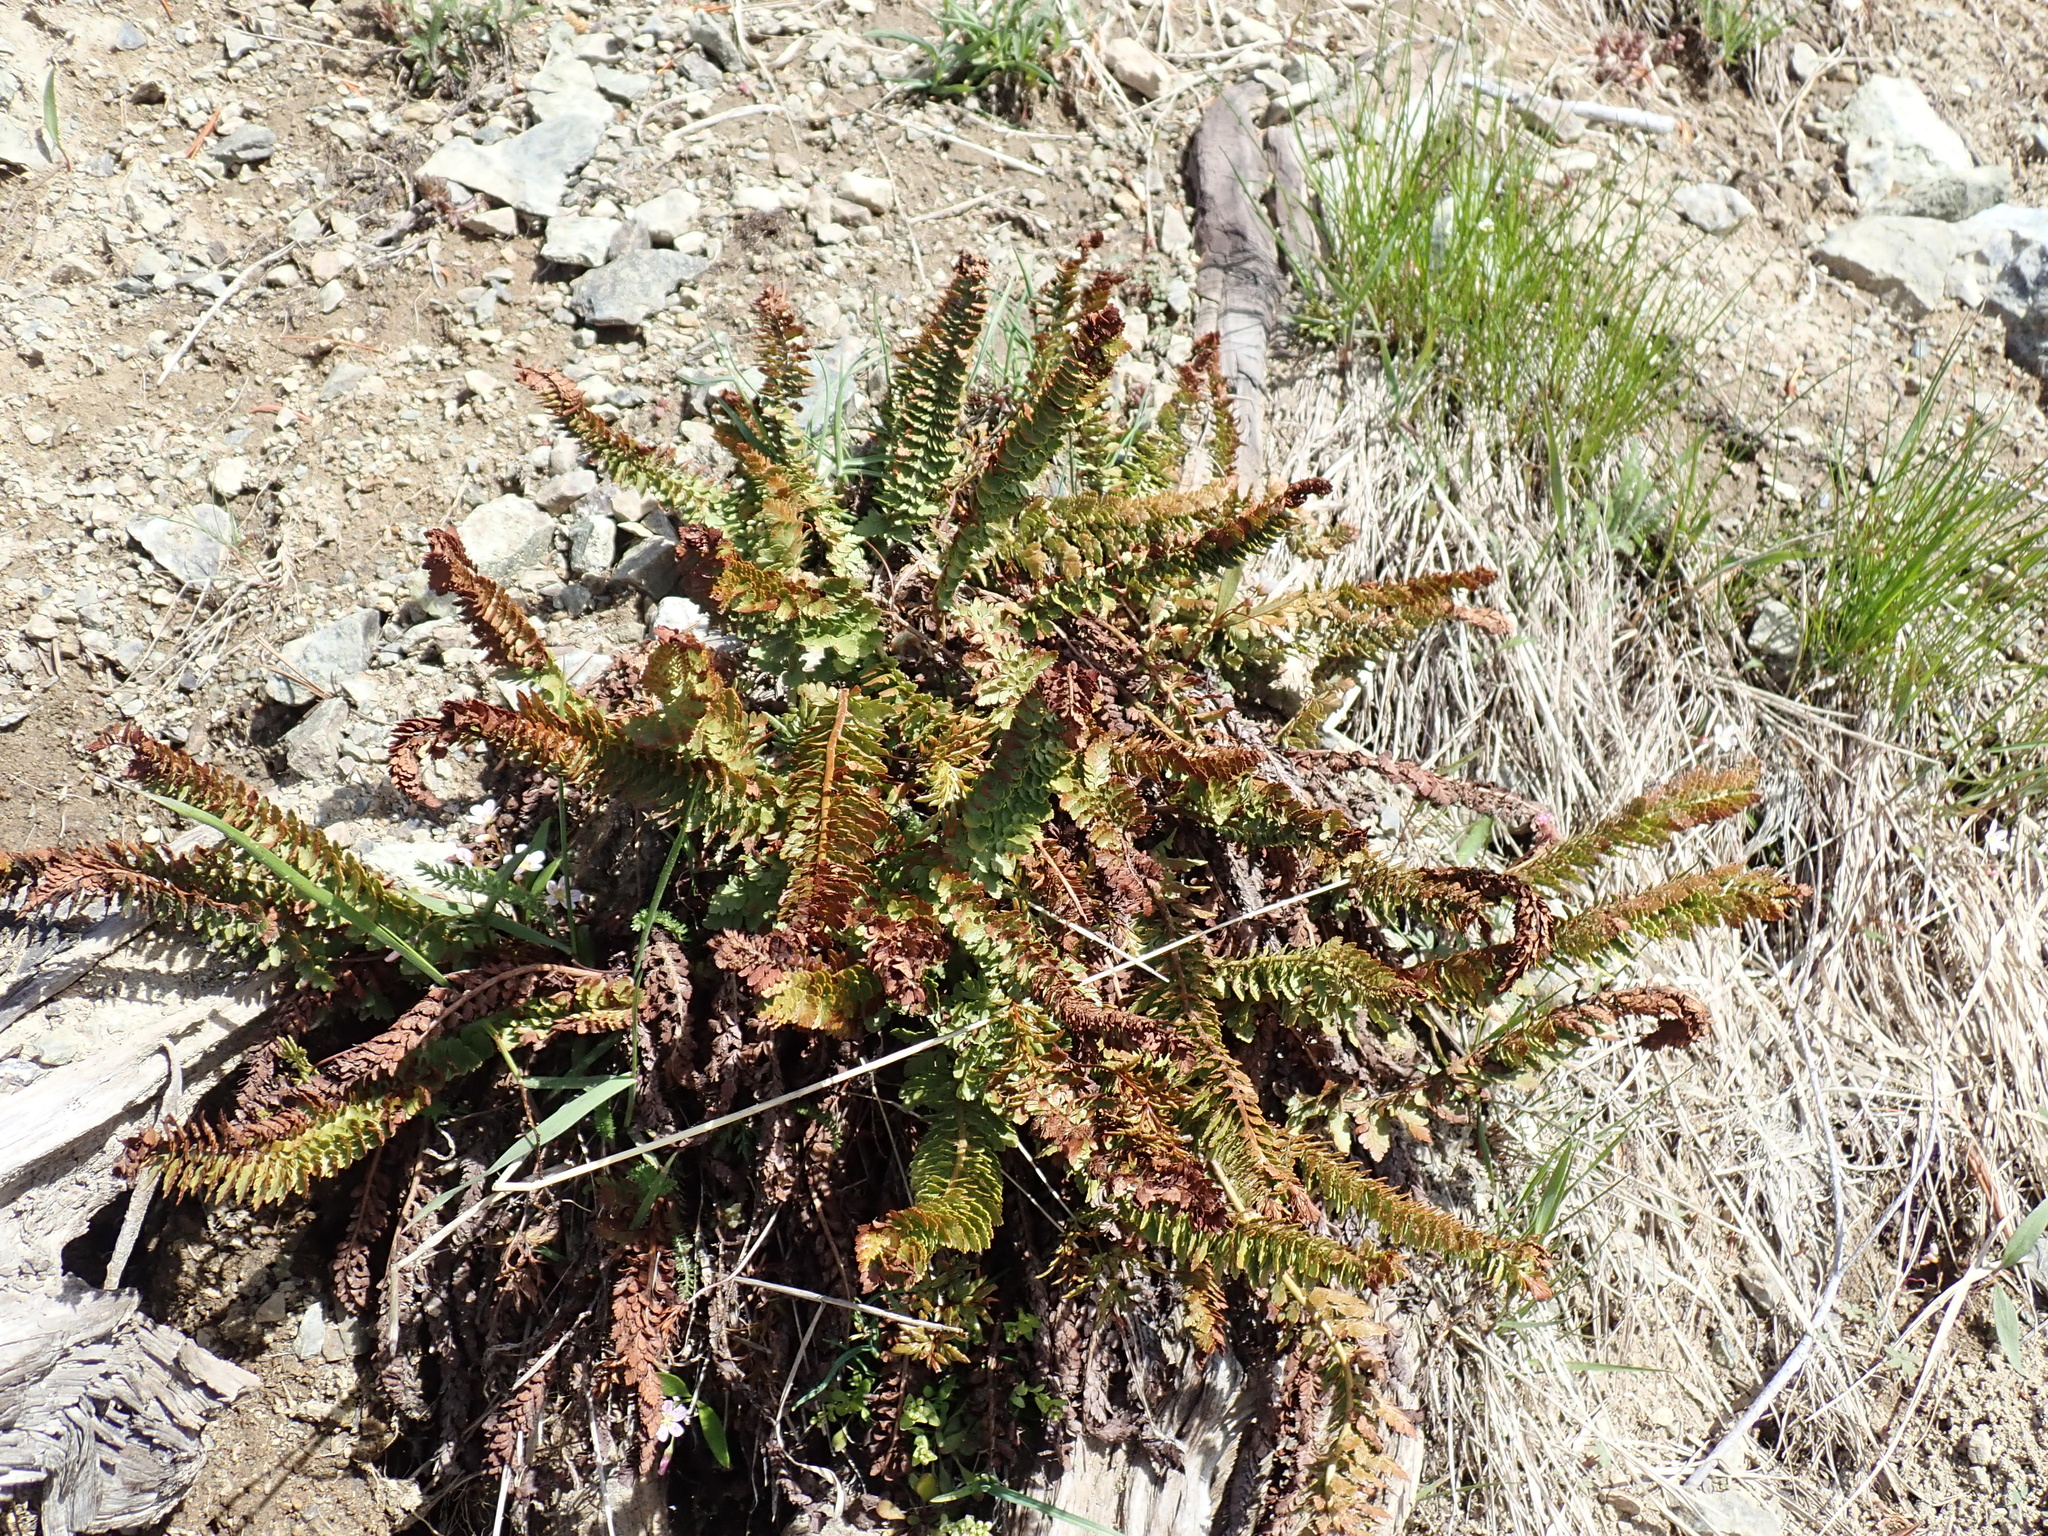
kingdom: Plantae
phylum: Tracheophyta
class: Polypodiopsida
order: Polypodiales
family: Dryopteridaceae
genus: Polystichum
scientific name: Polystichum lemmonii
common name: Lemmon's holly fern
